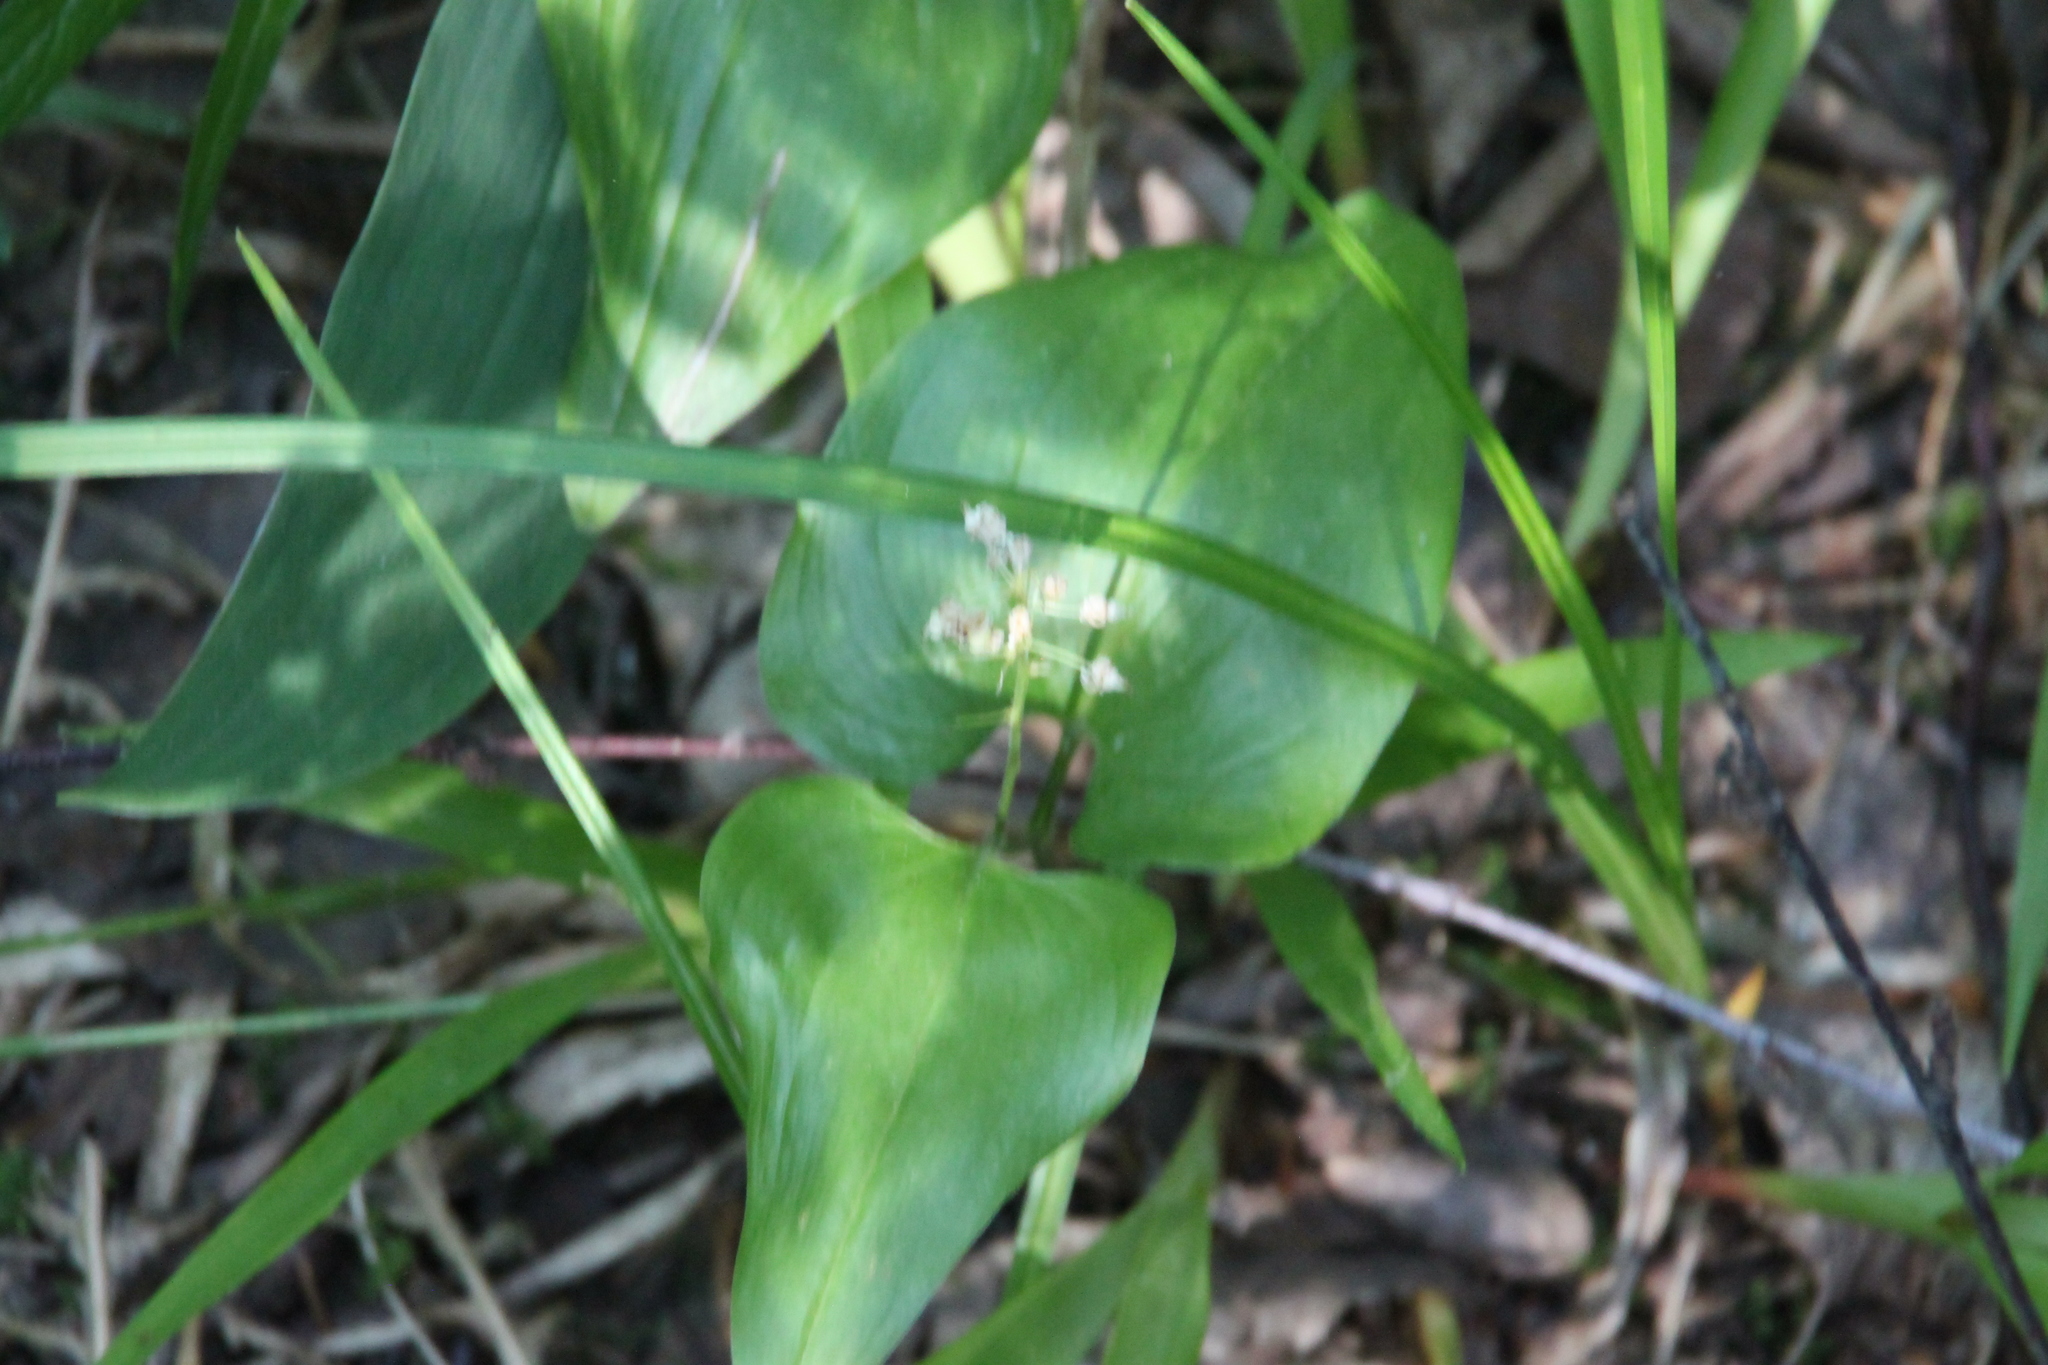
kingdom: Plantae
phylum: Tracheophyta
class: Liliopsida
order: Asparagales
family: Asparagaceae
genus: Maianthemum
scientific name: Maianthemum bifolium
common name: May lily
